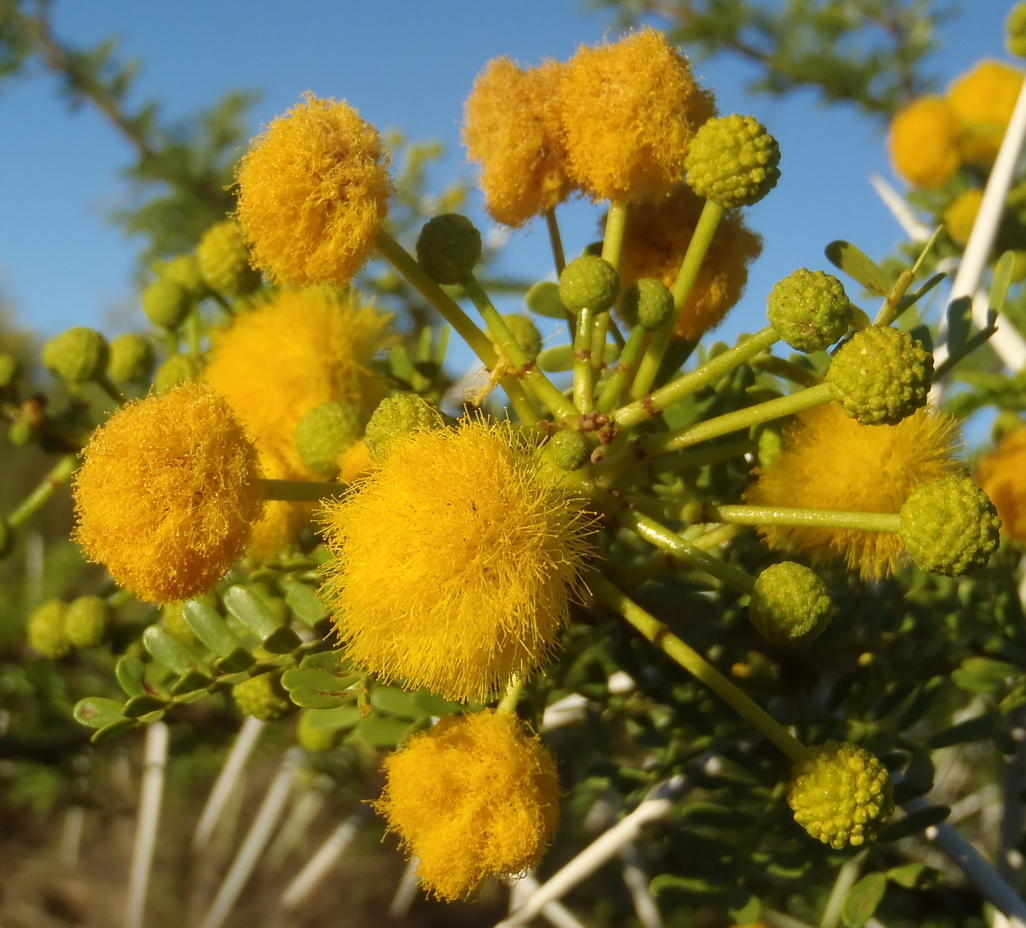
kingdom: Plantae
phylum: Tracheophyta
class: Magnoliopsida
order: Fabales
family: Fabaceae
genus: Vachellia
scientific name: Vachellia karroo
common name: Sweet thorn
